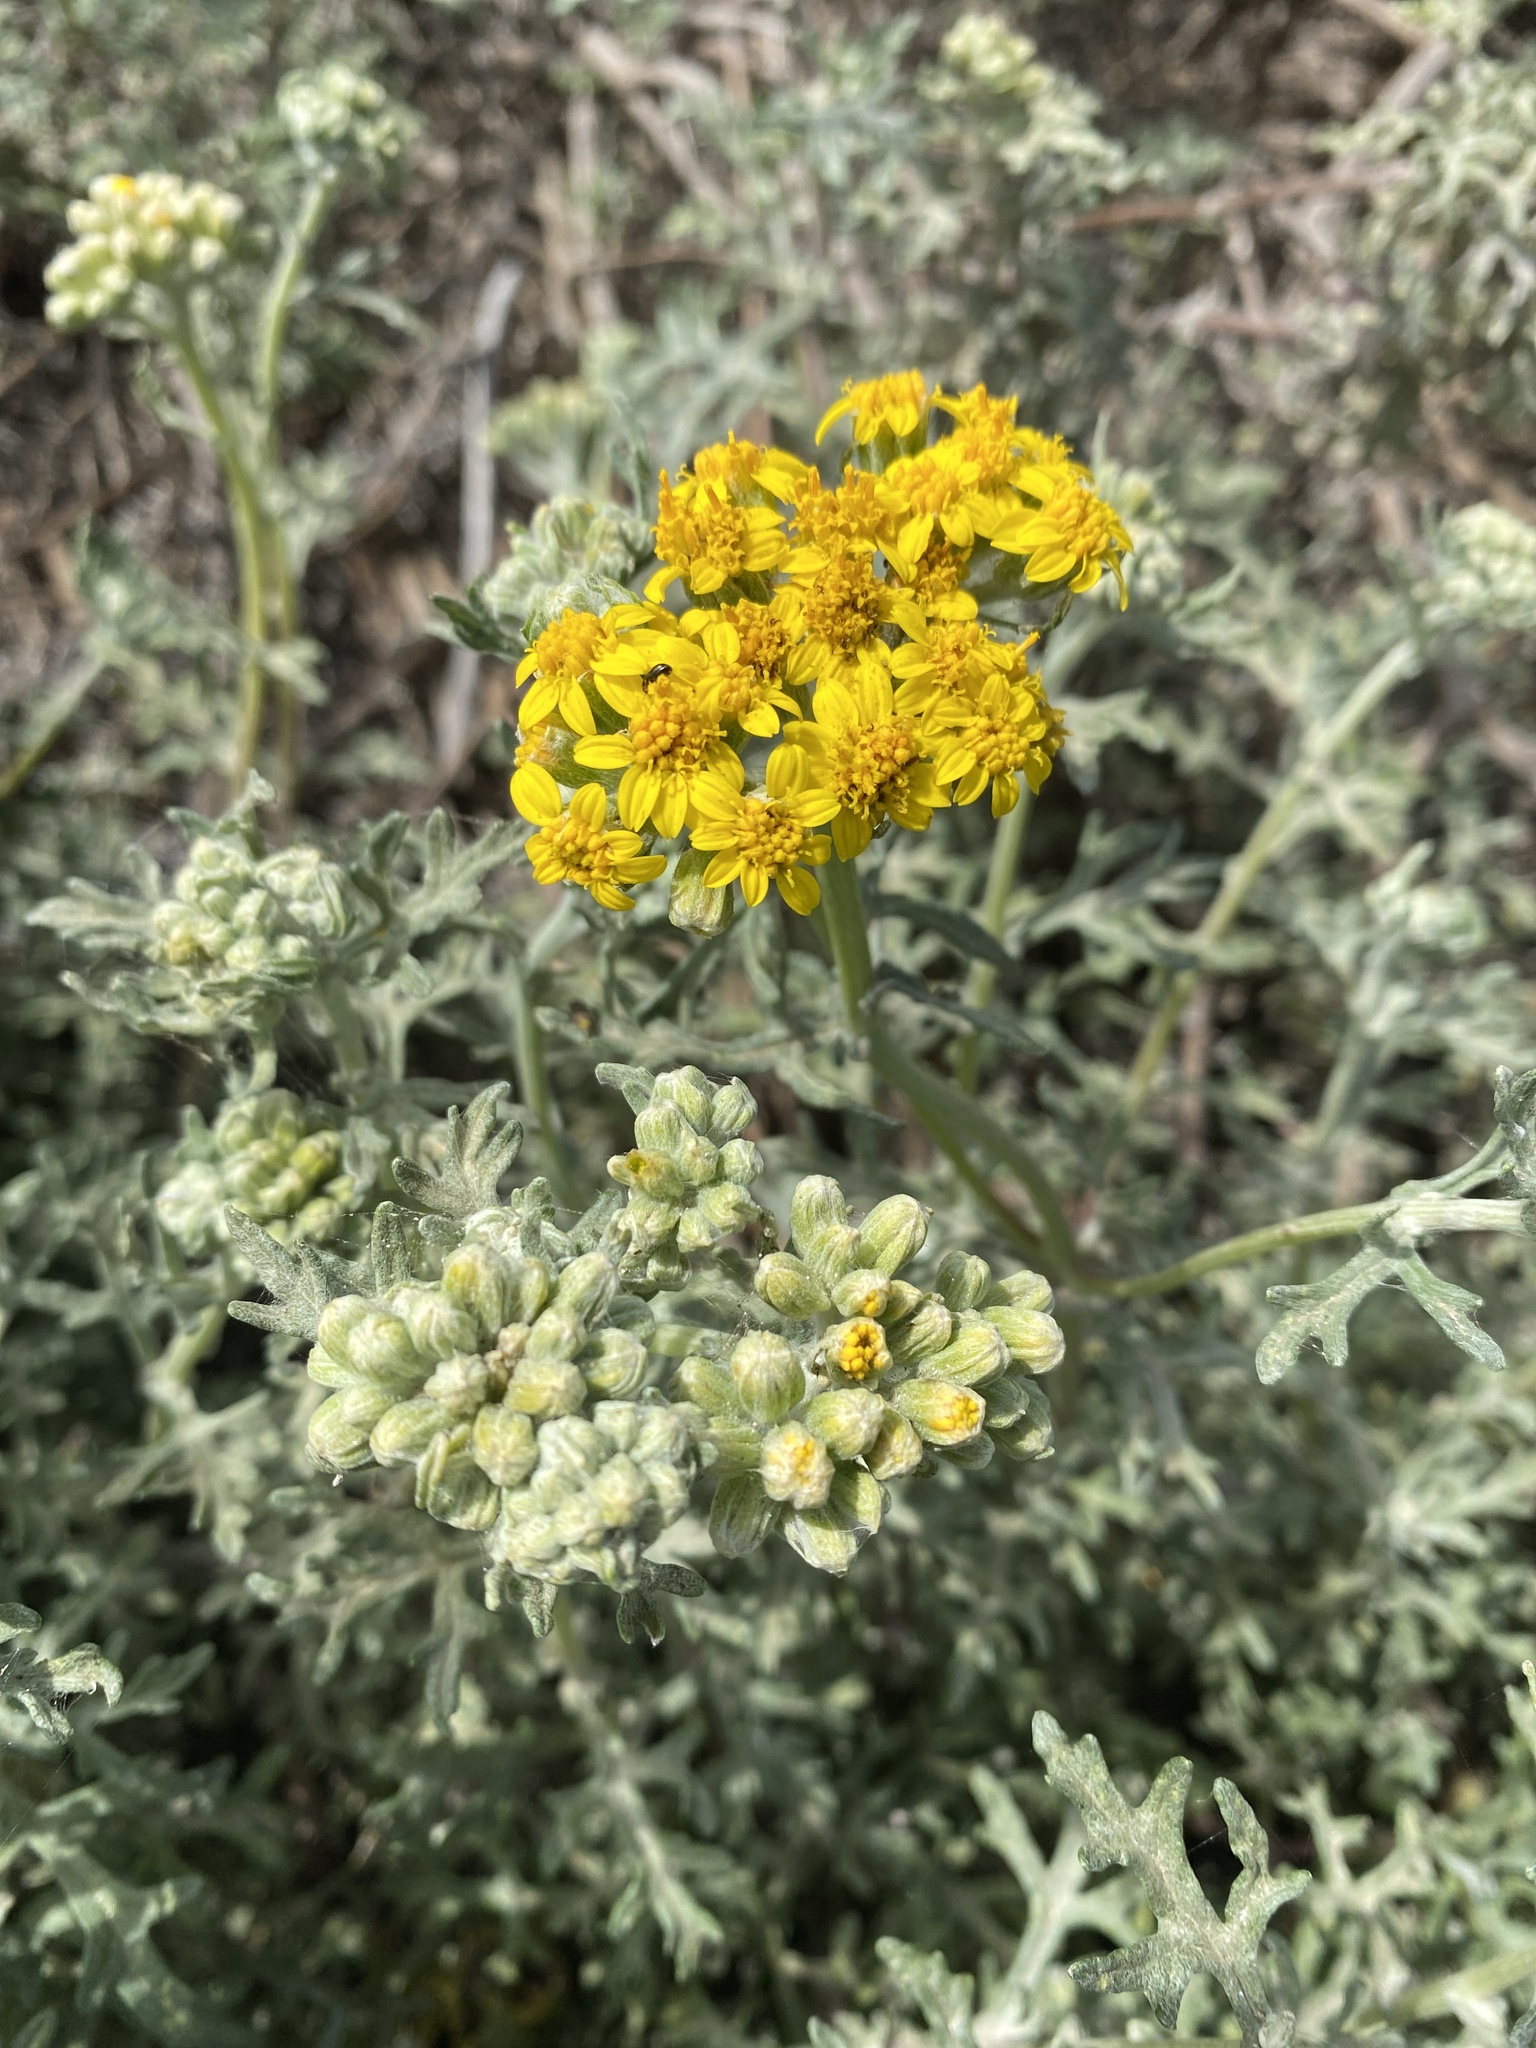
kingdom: Plantae
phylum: Tracheophyta
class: Magnoliopsida
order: Asterales
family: Asteraceae
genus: Eriophyllum
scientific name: Eriophyllum staechadifolium
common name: Lizardtail
